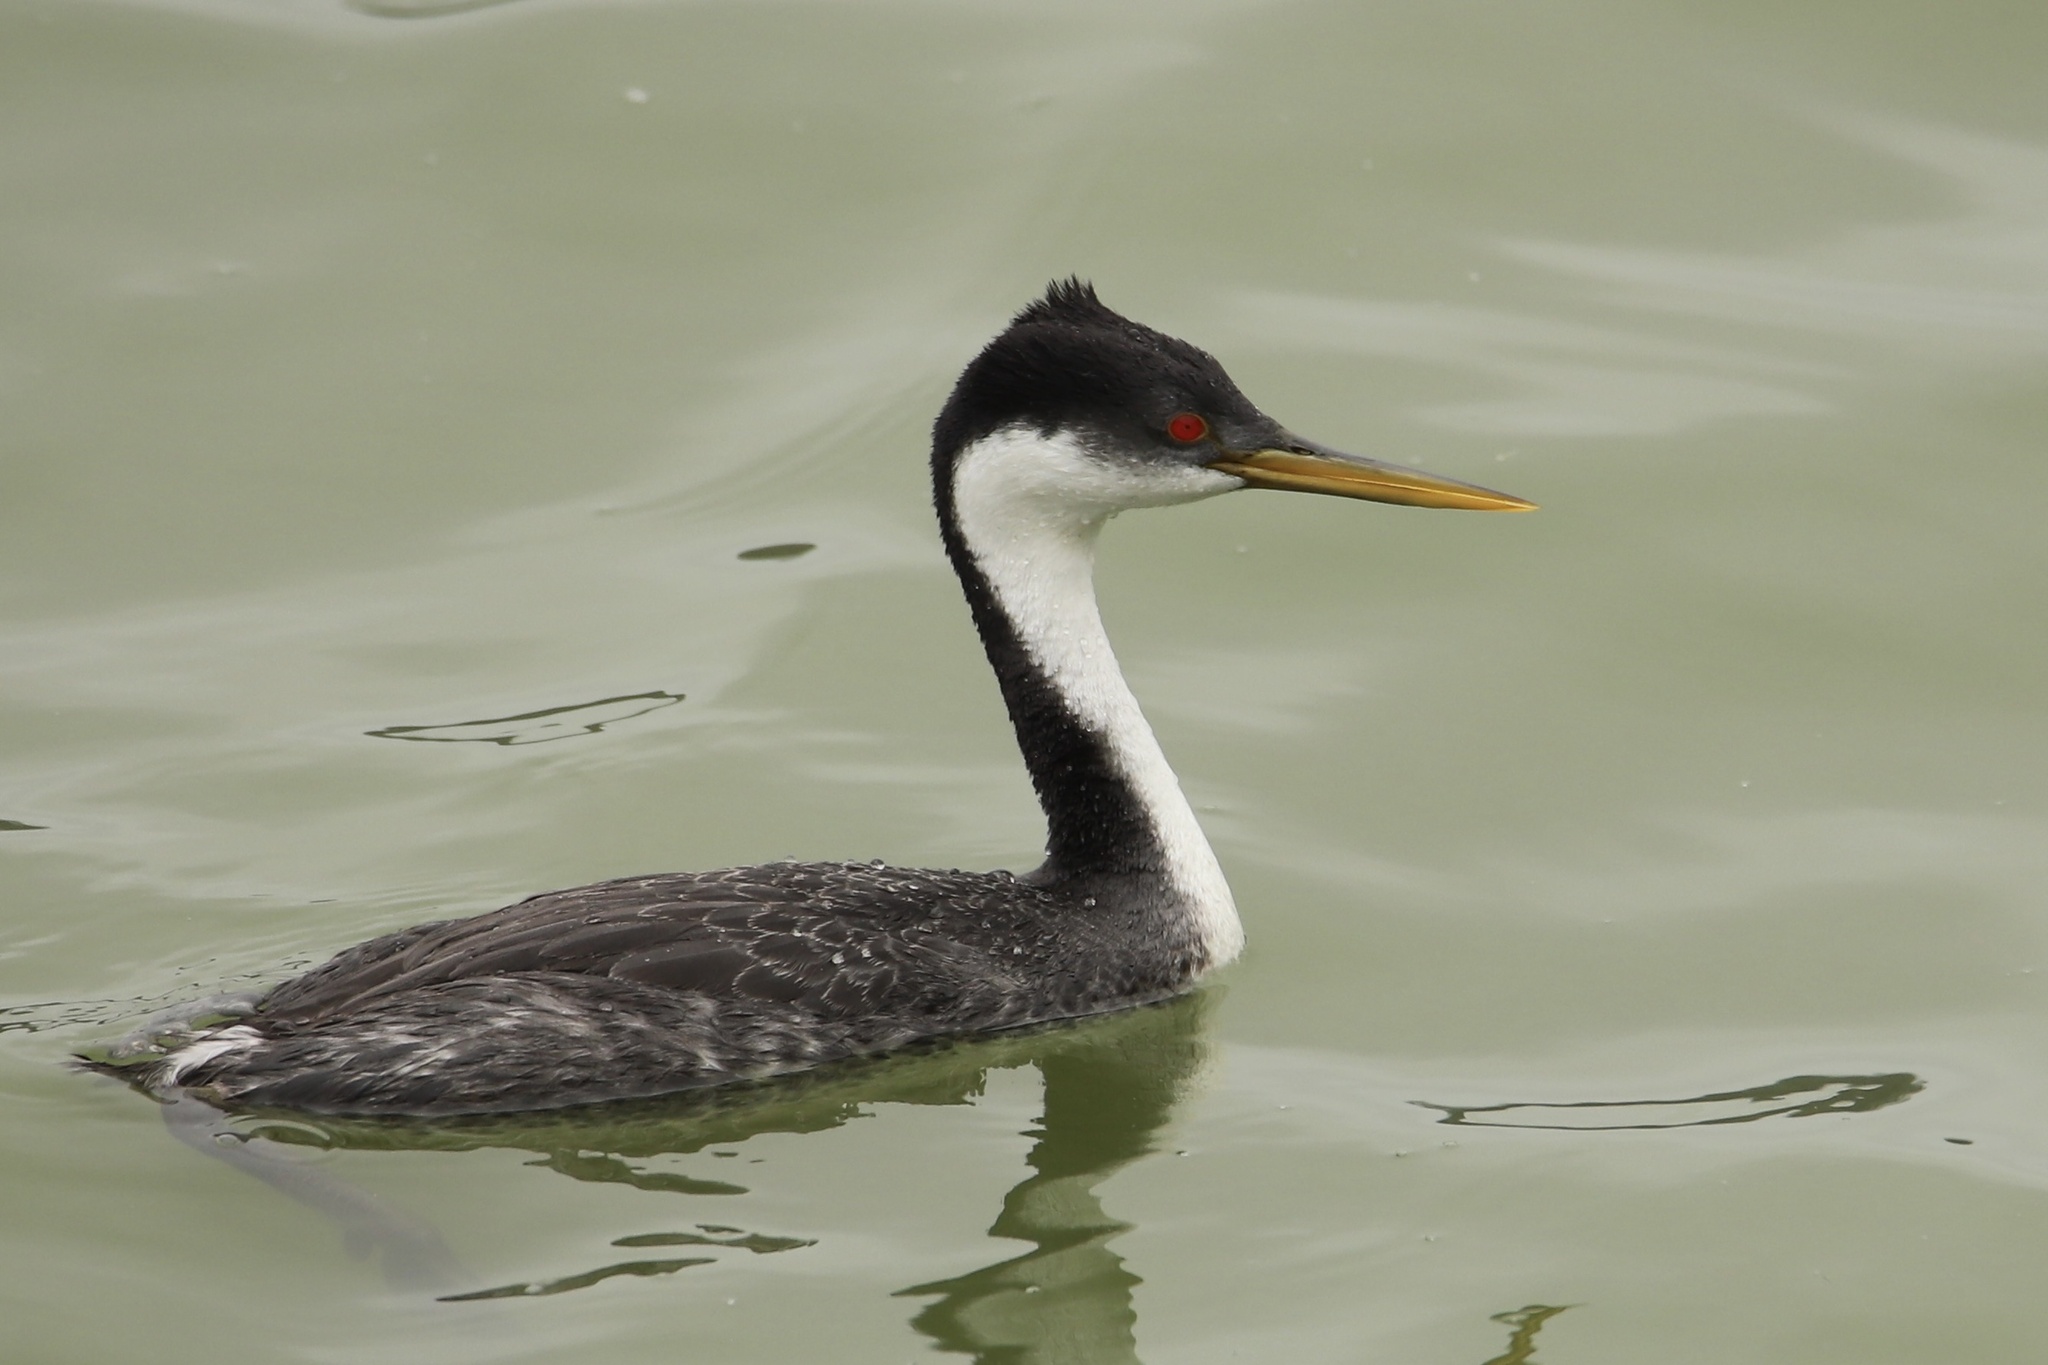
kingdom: Animalia
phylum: Chordata
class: Aves
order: Podicipediformes
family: Podicipedidae
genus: Aechmophorus
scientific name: Aechmophorus occidentalis
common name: Western grebe
